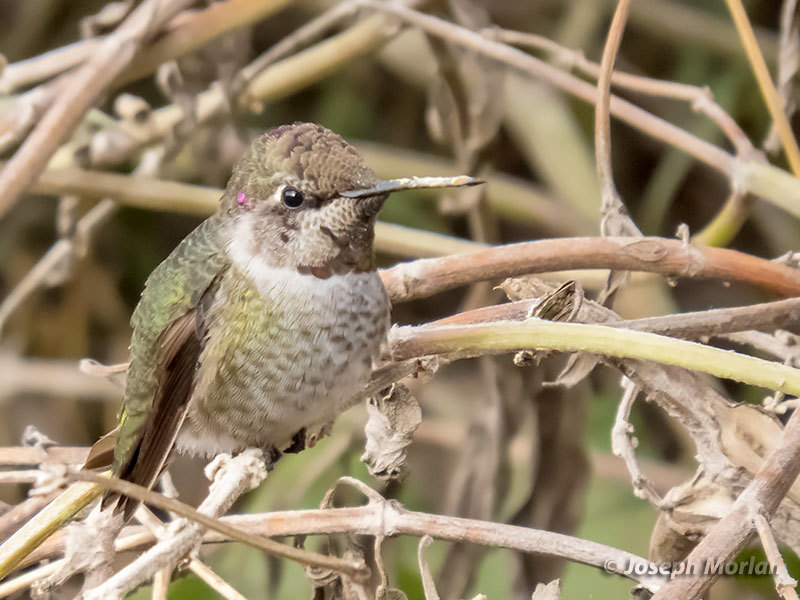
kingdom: Animalia
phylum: Chordata
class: Aves
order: Apodiformes
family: Trochilidae
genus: Calypte
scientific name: Calypte anna
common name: Anna's hummingbird
